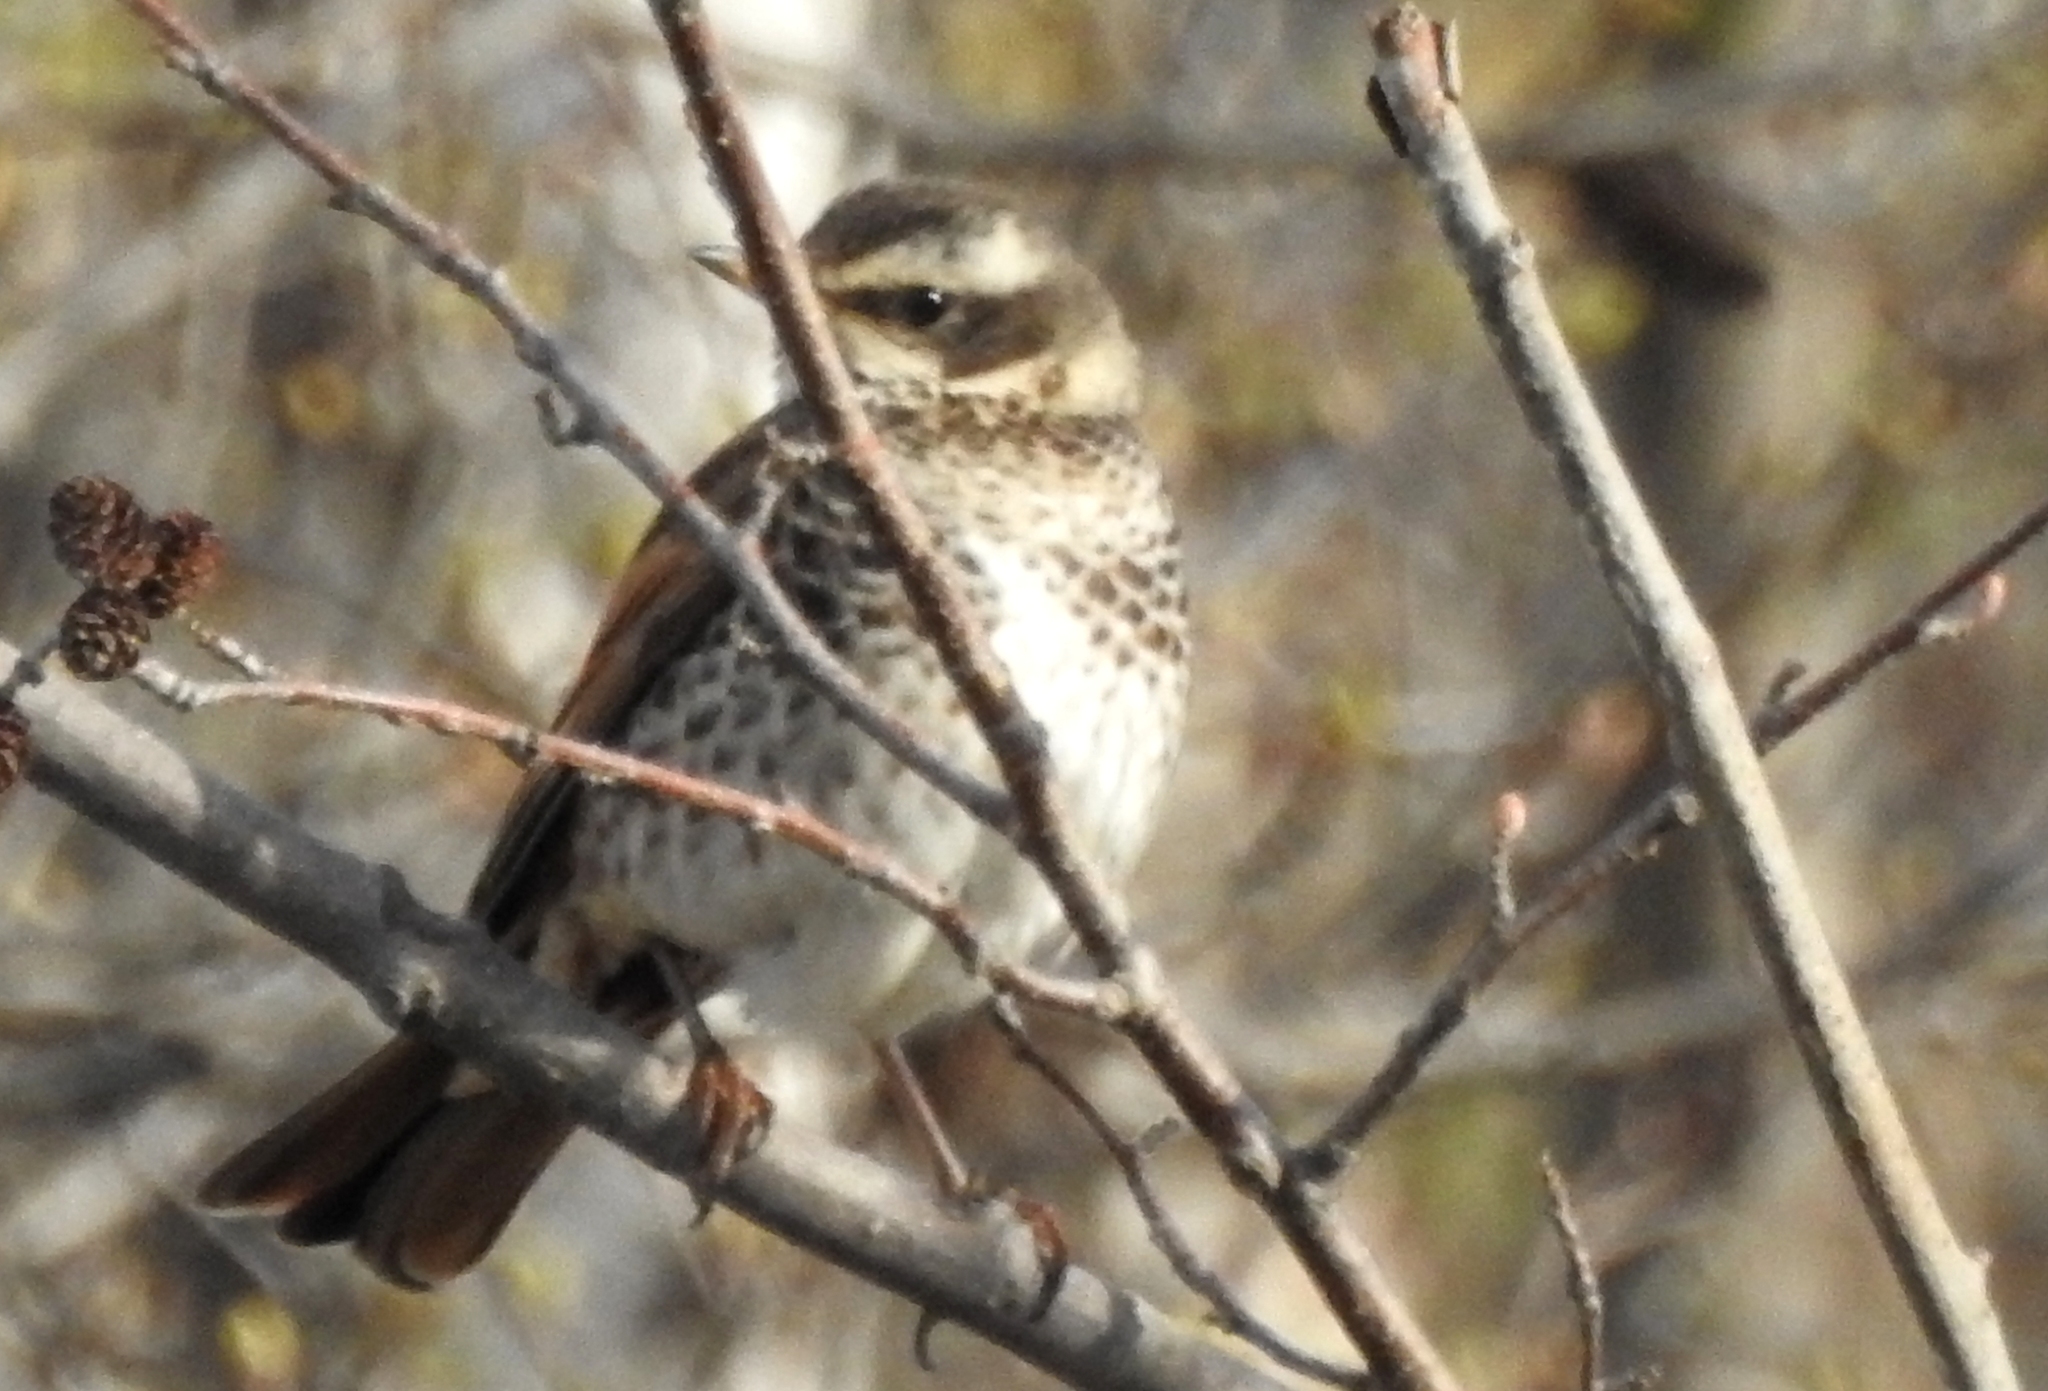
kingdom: Animalia
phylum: Chordata
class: Aves
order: Passeriformes
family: Turdidae
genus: Turdus
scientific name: Turdus eunomus
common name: Dusky thrush
